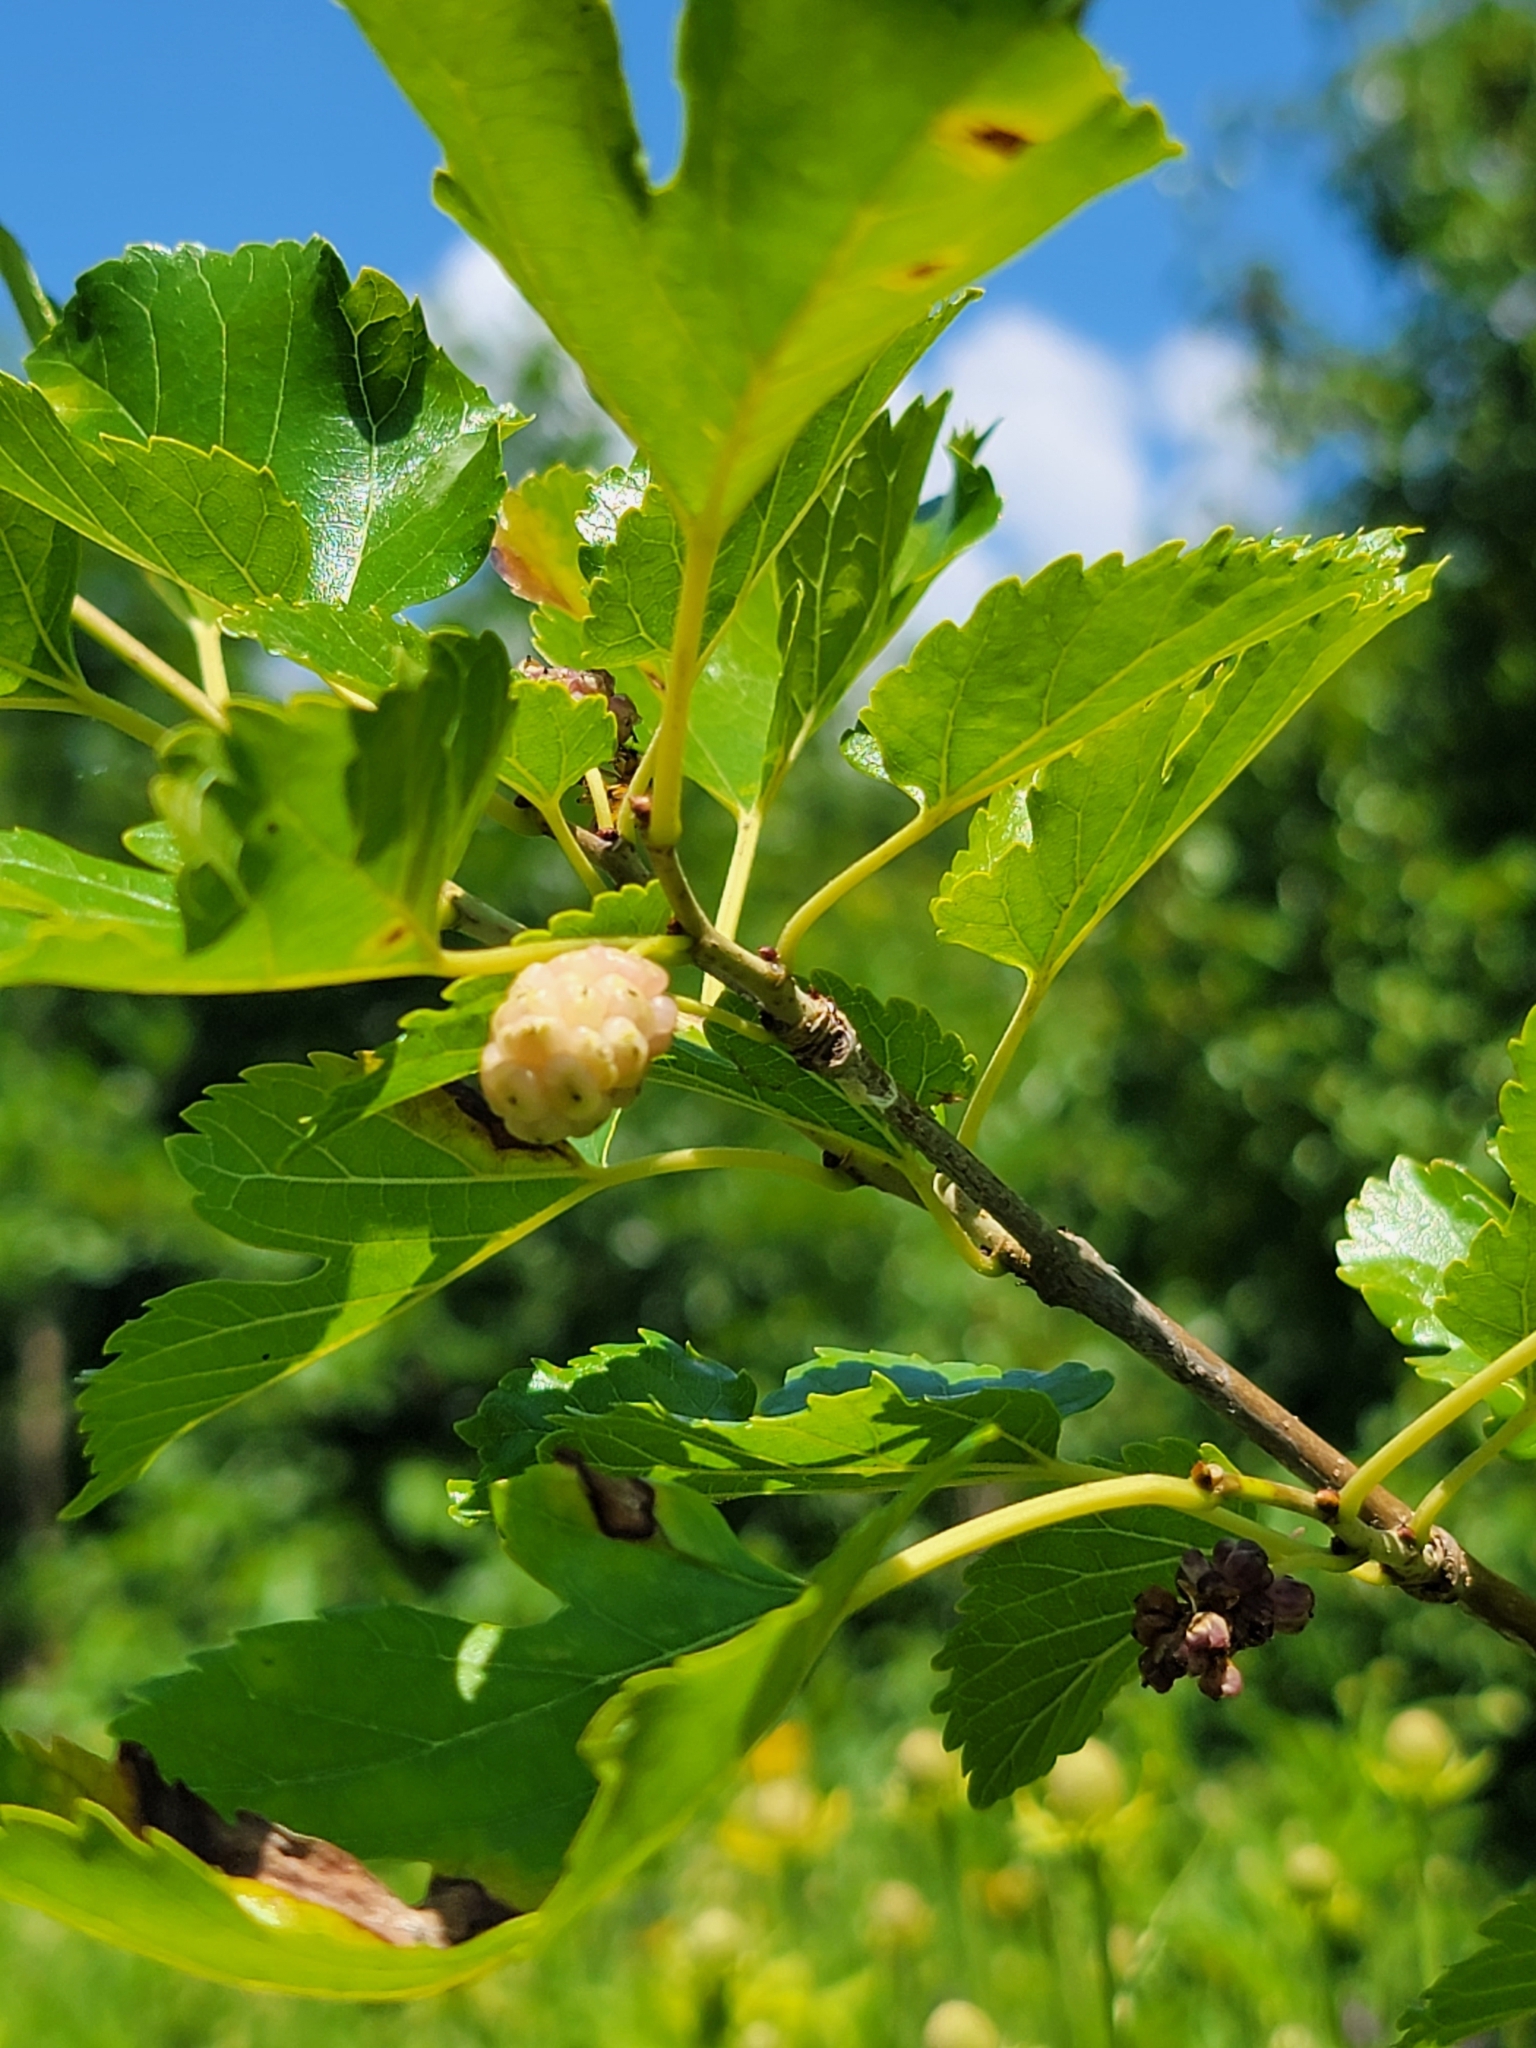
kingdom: Plantae
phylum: Tracheophyta
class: Magnoliopsida
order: Rosales
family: Moraceae
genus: Morus
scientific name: Morus alba
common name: White mulberry
